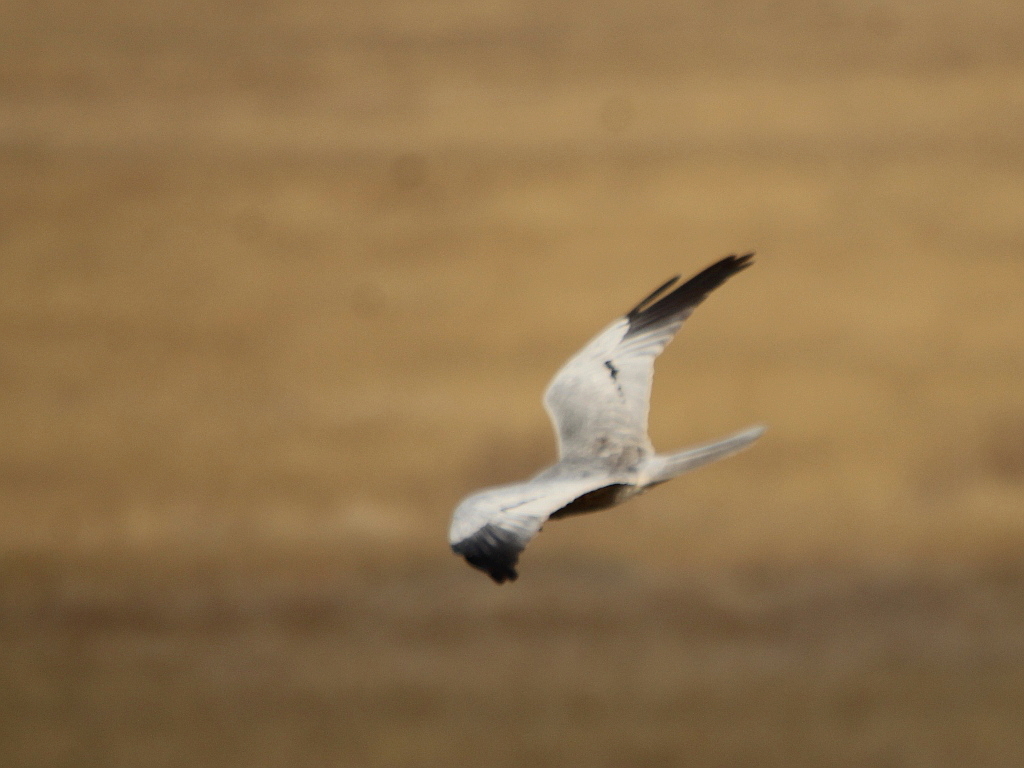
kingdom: Animalia
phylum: Chordata
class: Aves
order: Accipitriformes
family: Accipitridae
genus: Circus
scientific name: Circus pygargus
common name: Montagu's harrier
